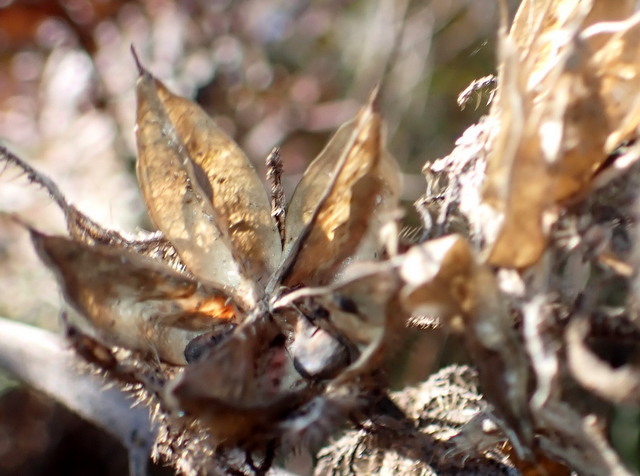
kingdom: Plantae
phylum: Tracheophyta
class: Magnoliopsida
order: Malvales
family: Malvaceae
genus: Hibiscus
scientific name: Hibiscus aculeatus
